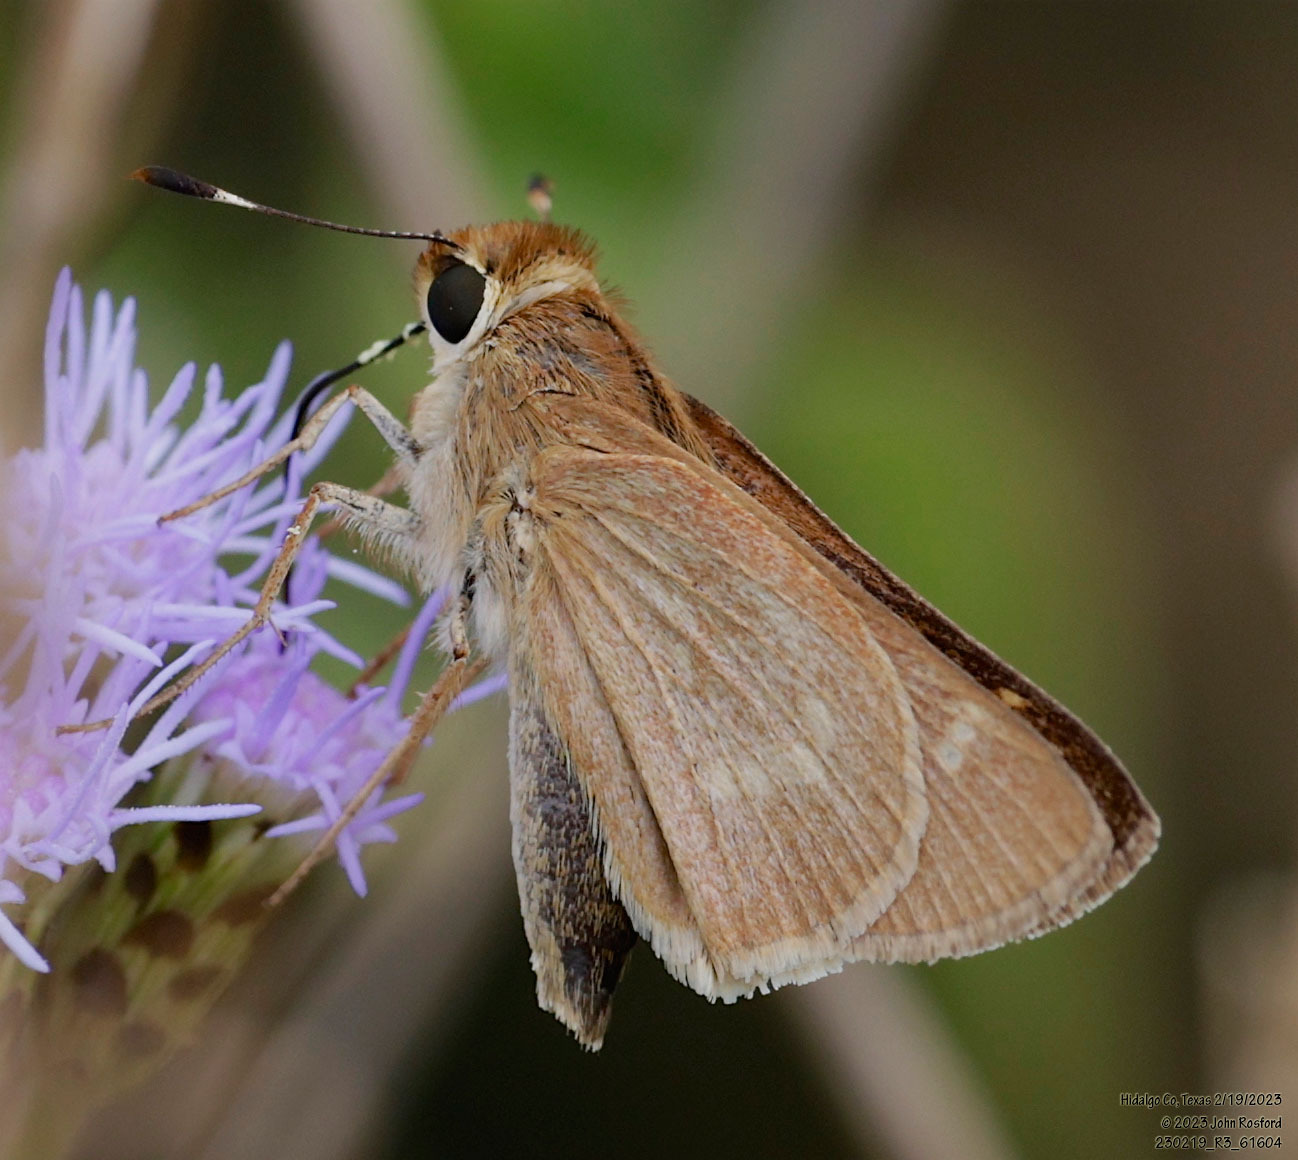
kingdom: Animalia
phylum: Arthropoda
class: Insecta
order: Lepidoptera
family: Hesperiidae
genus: Mellana
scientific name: Mellana eulogius
